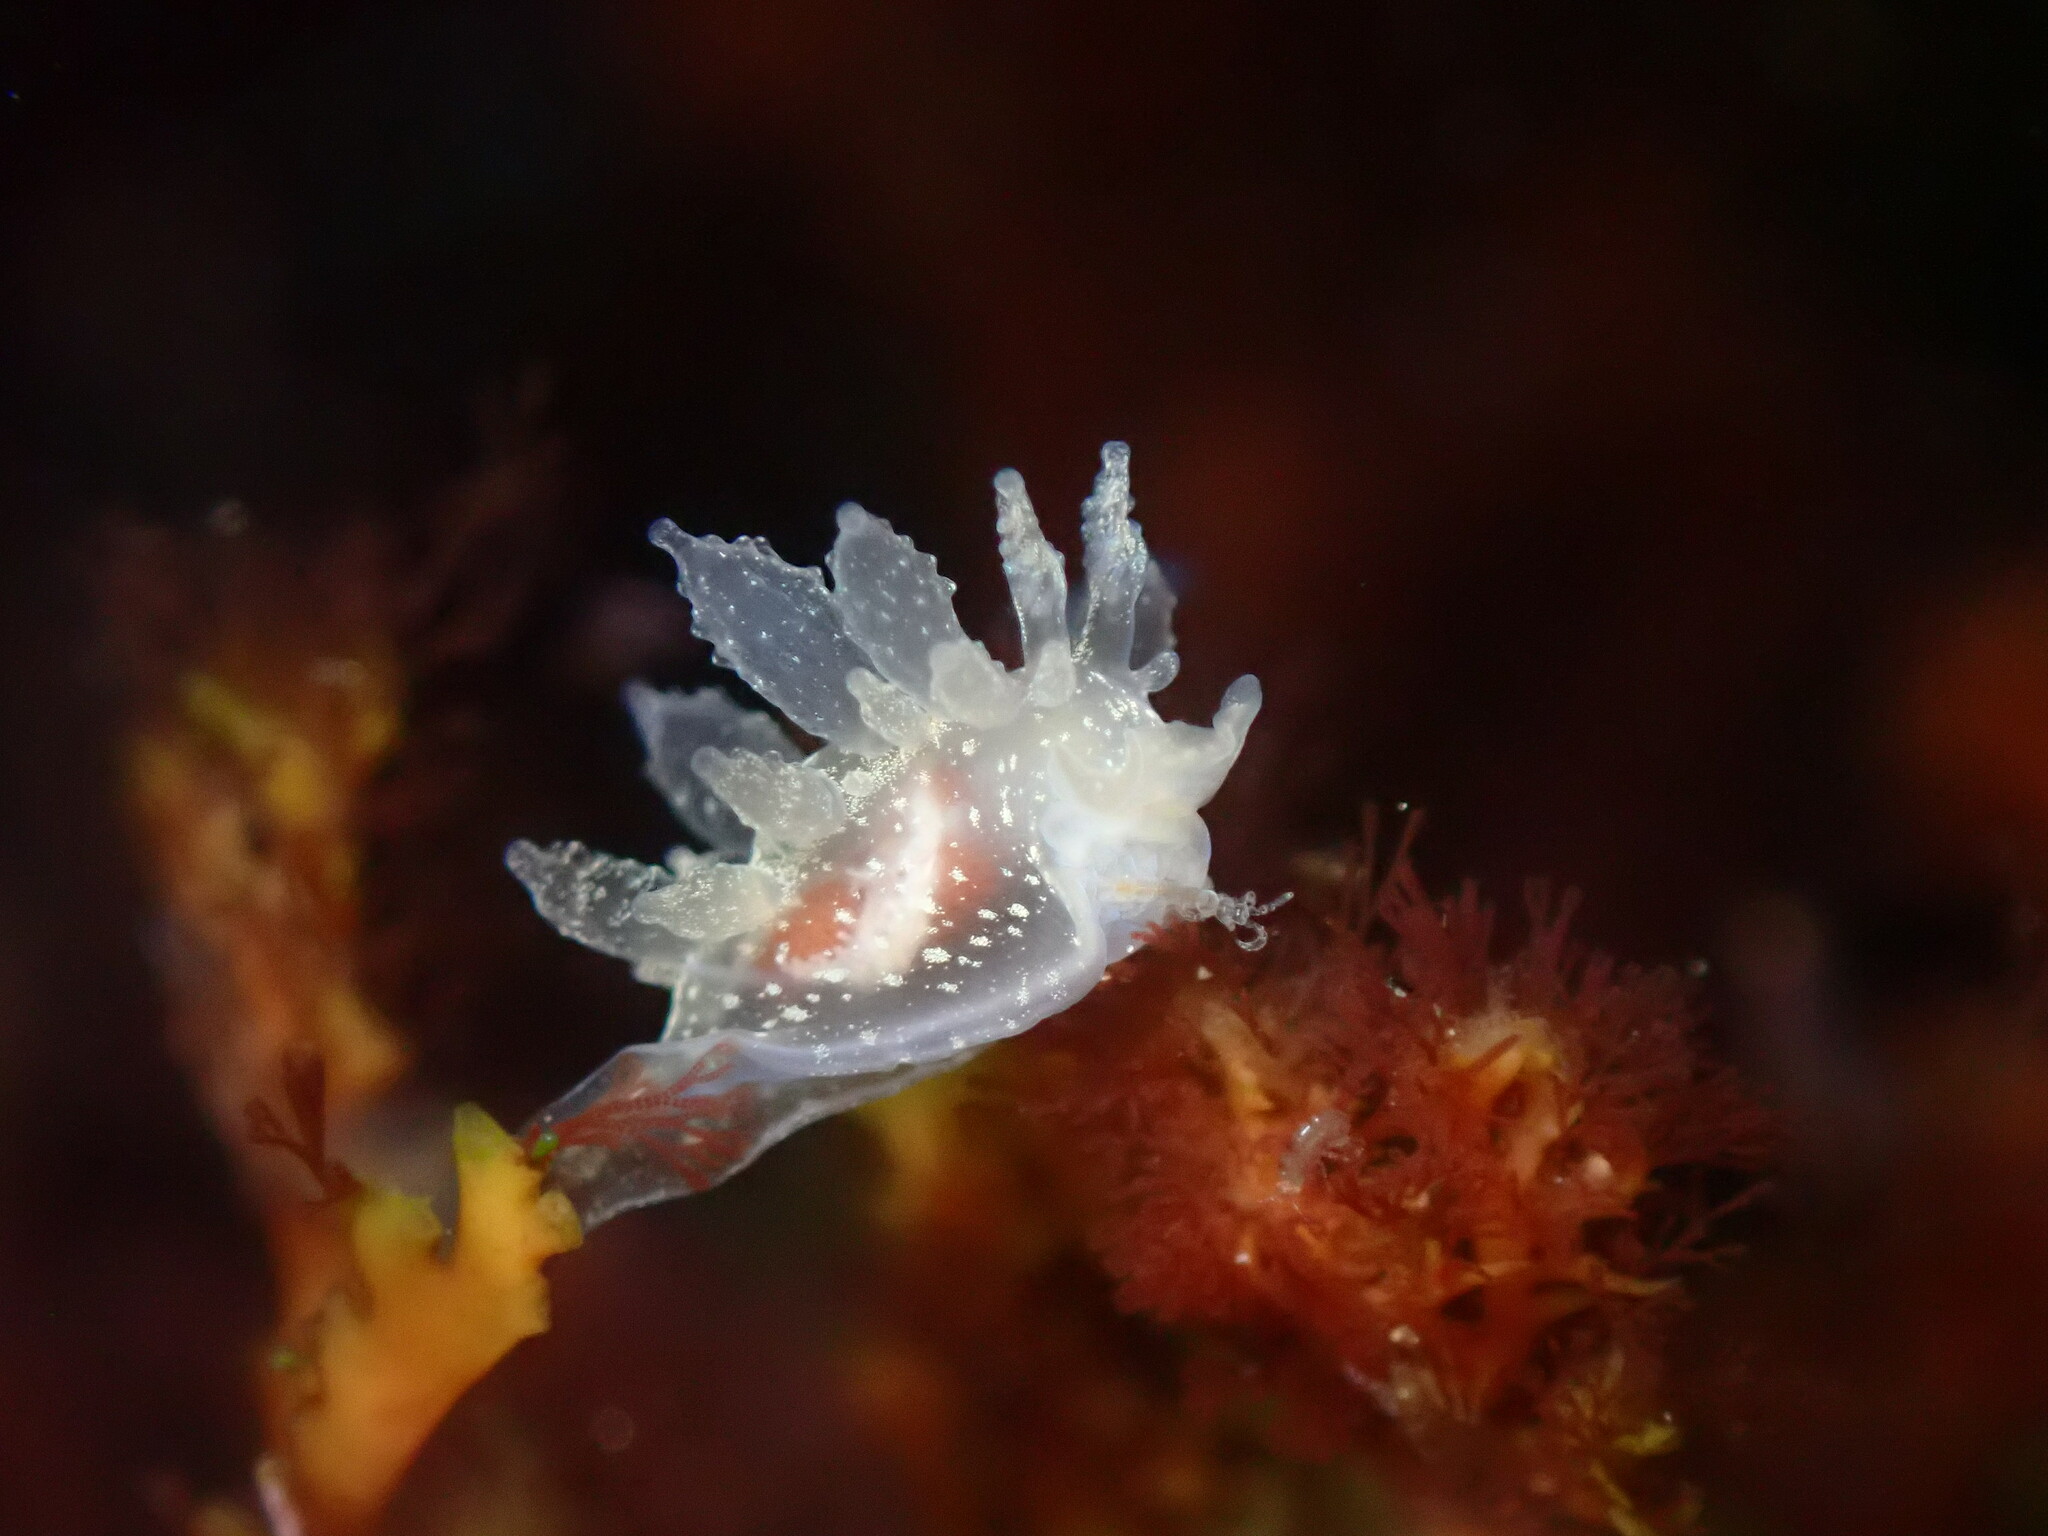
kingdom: Animalia
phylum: Mollusca
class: Gastropoda
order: Nudibranchia
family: Dironidae
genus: Dirona
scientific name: Dirona picta
